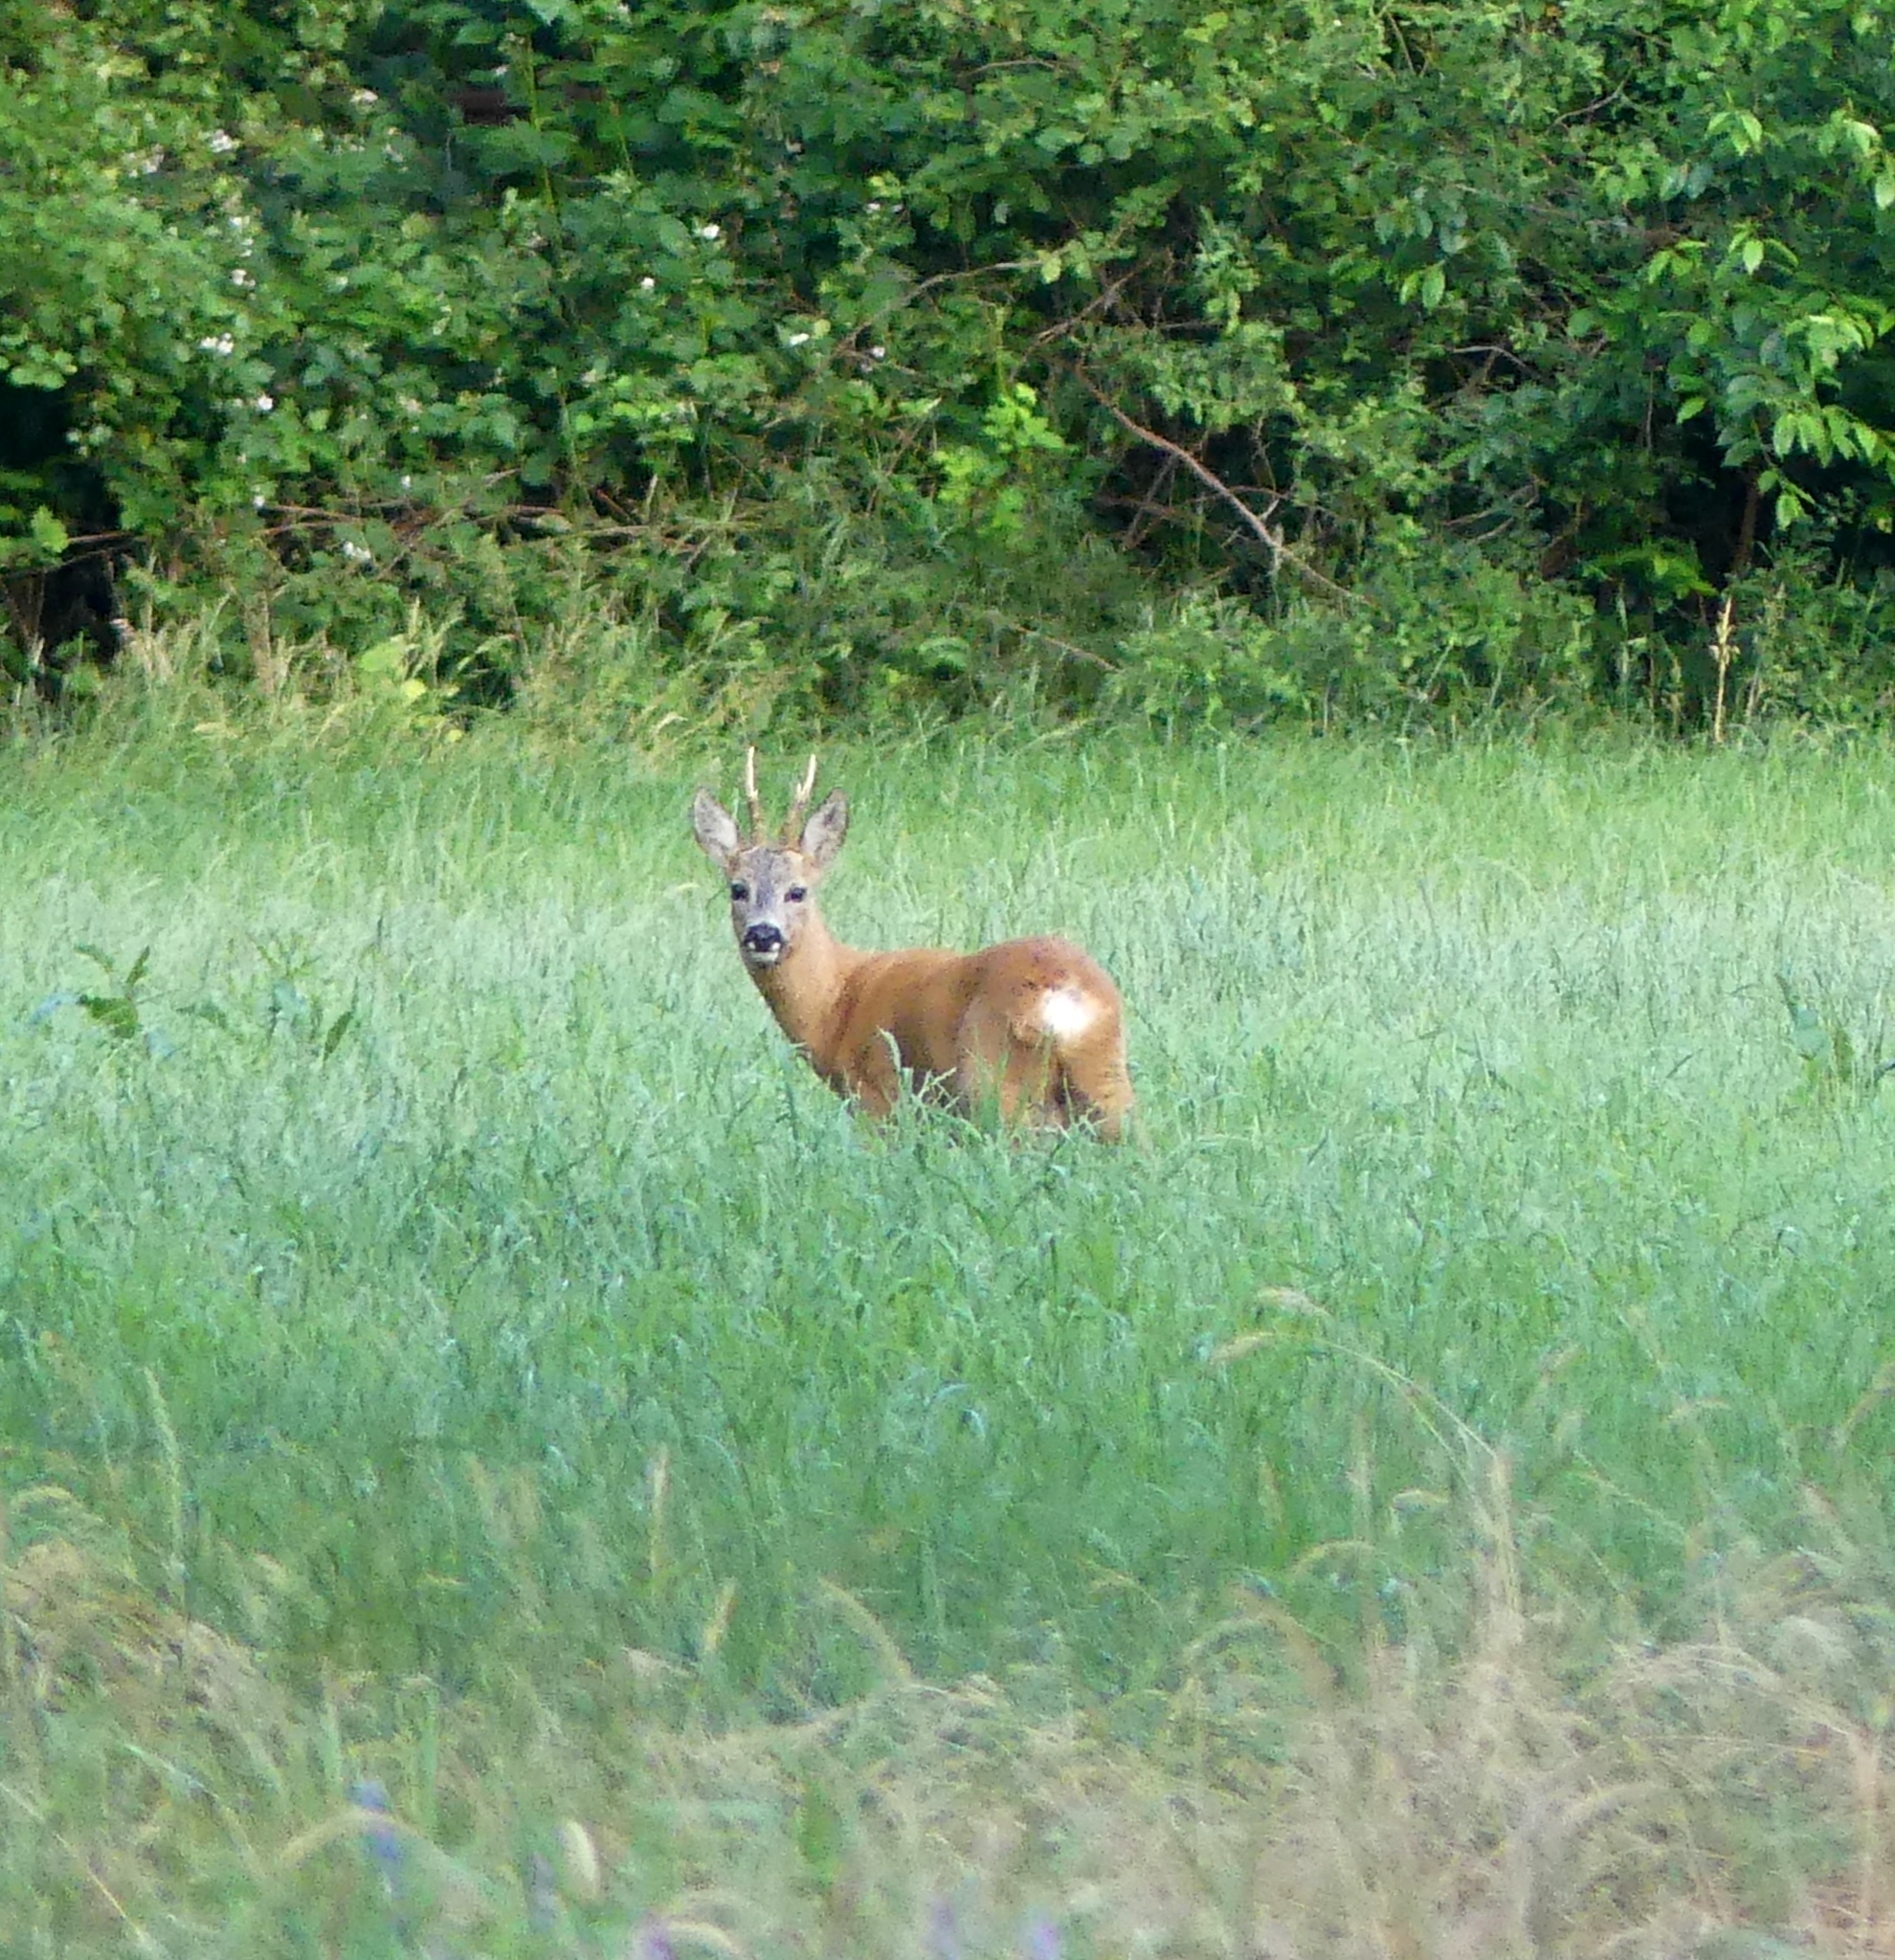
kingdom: Animalia
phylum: Chordata
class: Mammalia
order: Artiodactyla
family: Cervidae
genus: Capreolus
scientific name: Capreolus capreolus
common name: Western roe deer
